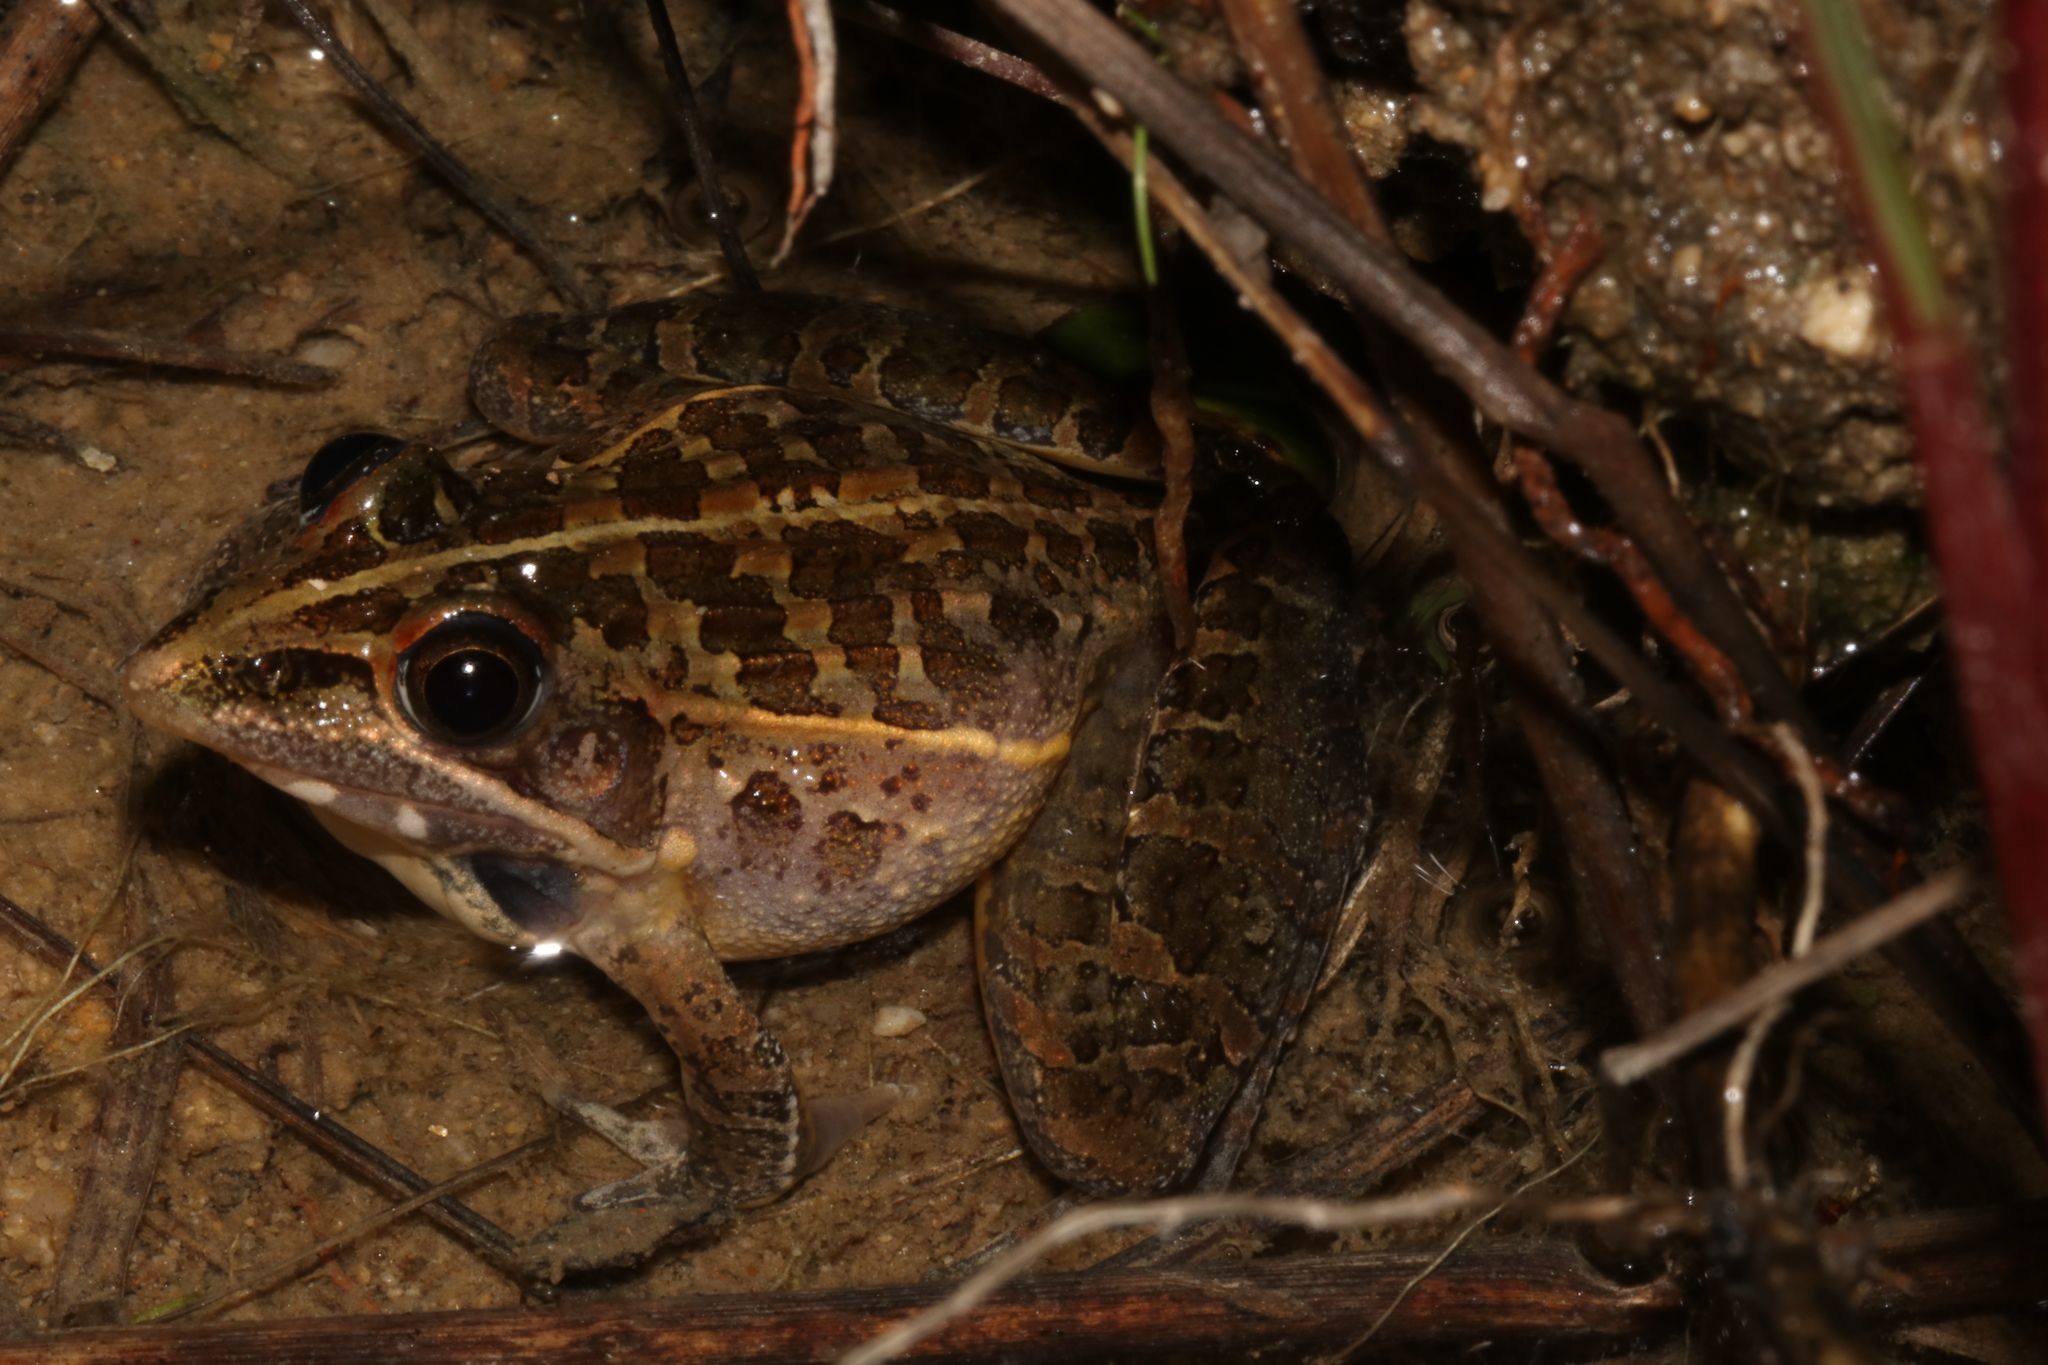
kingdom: Animalia
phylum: Chordata
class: Amphibia
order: Anura
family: Ptychadenidae
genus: Ptychadena
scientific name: Ptychadena uzungwensis
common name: Udzungwa ridged frog
